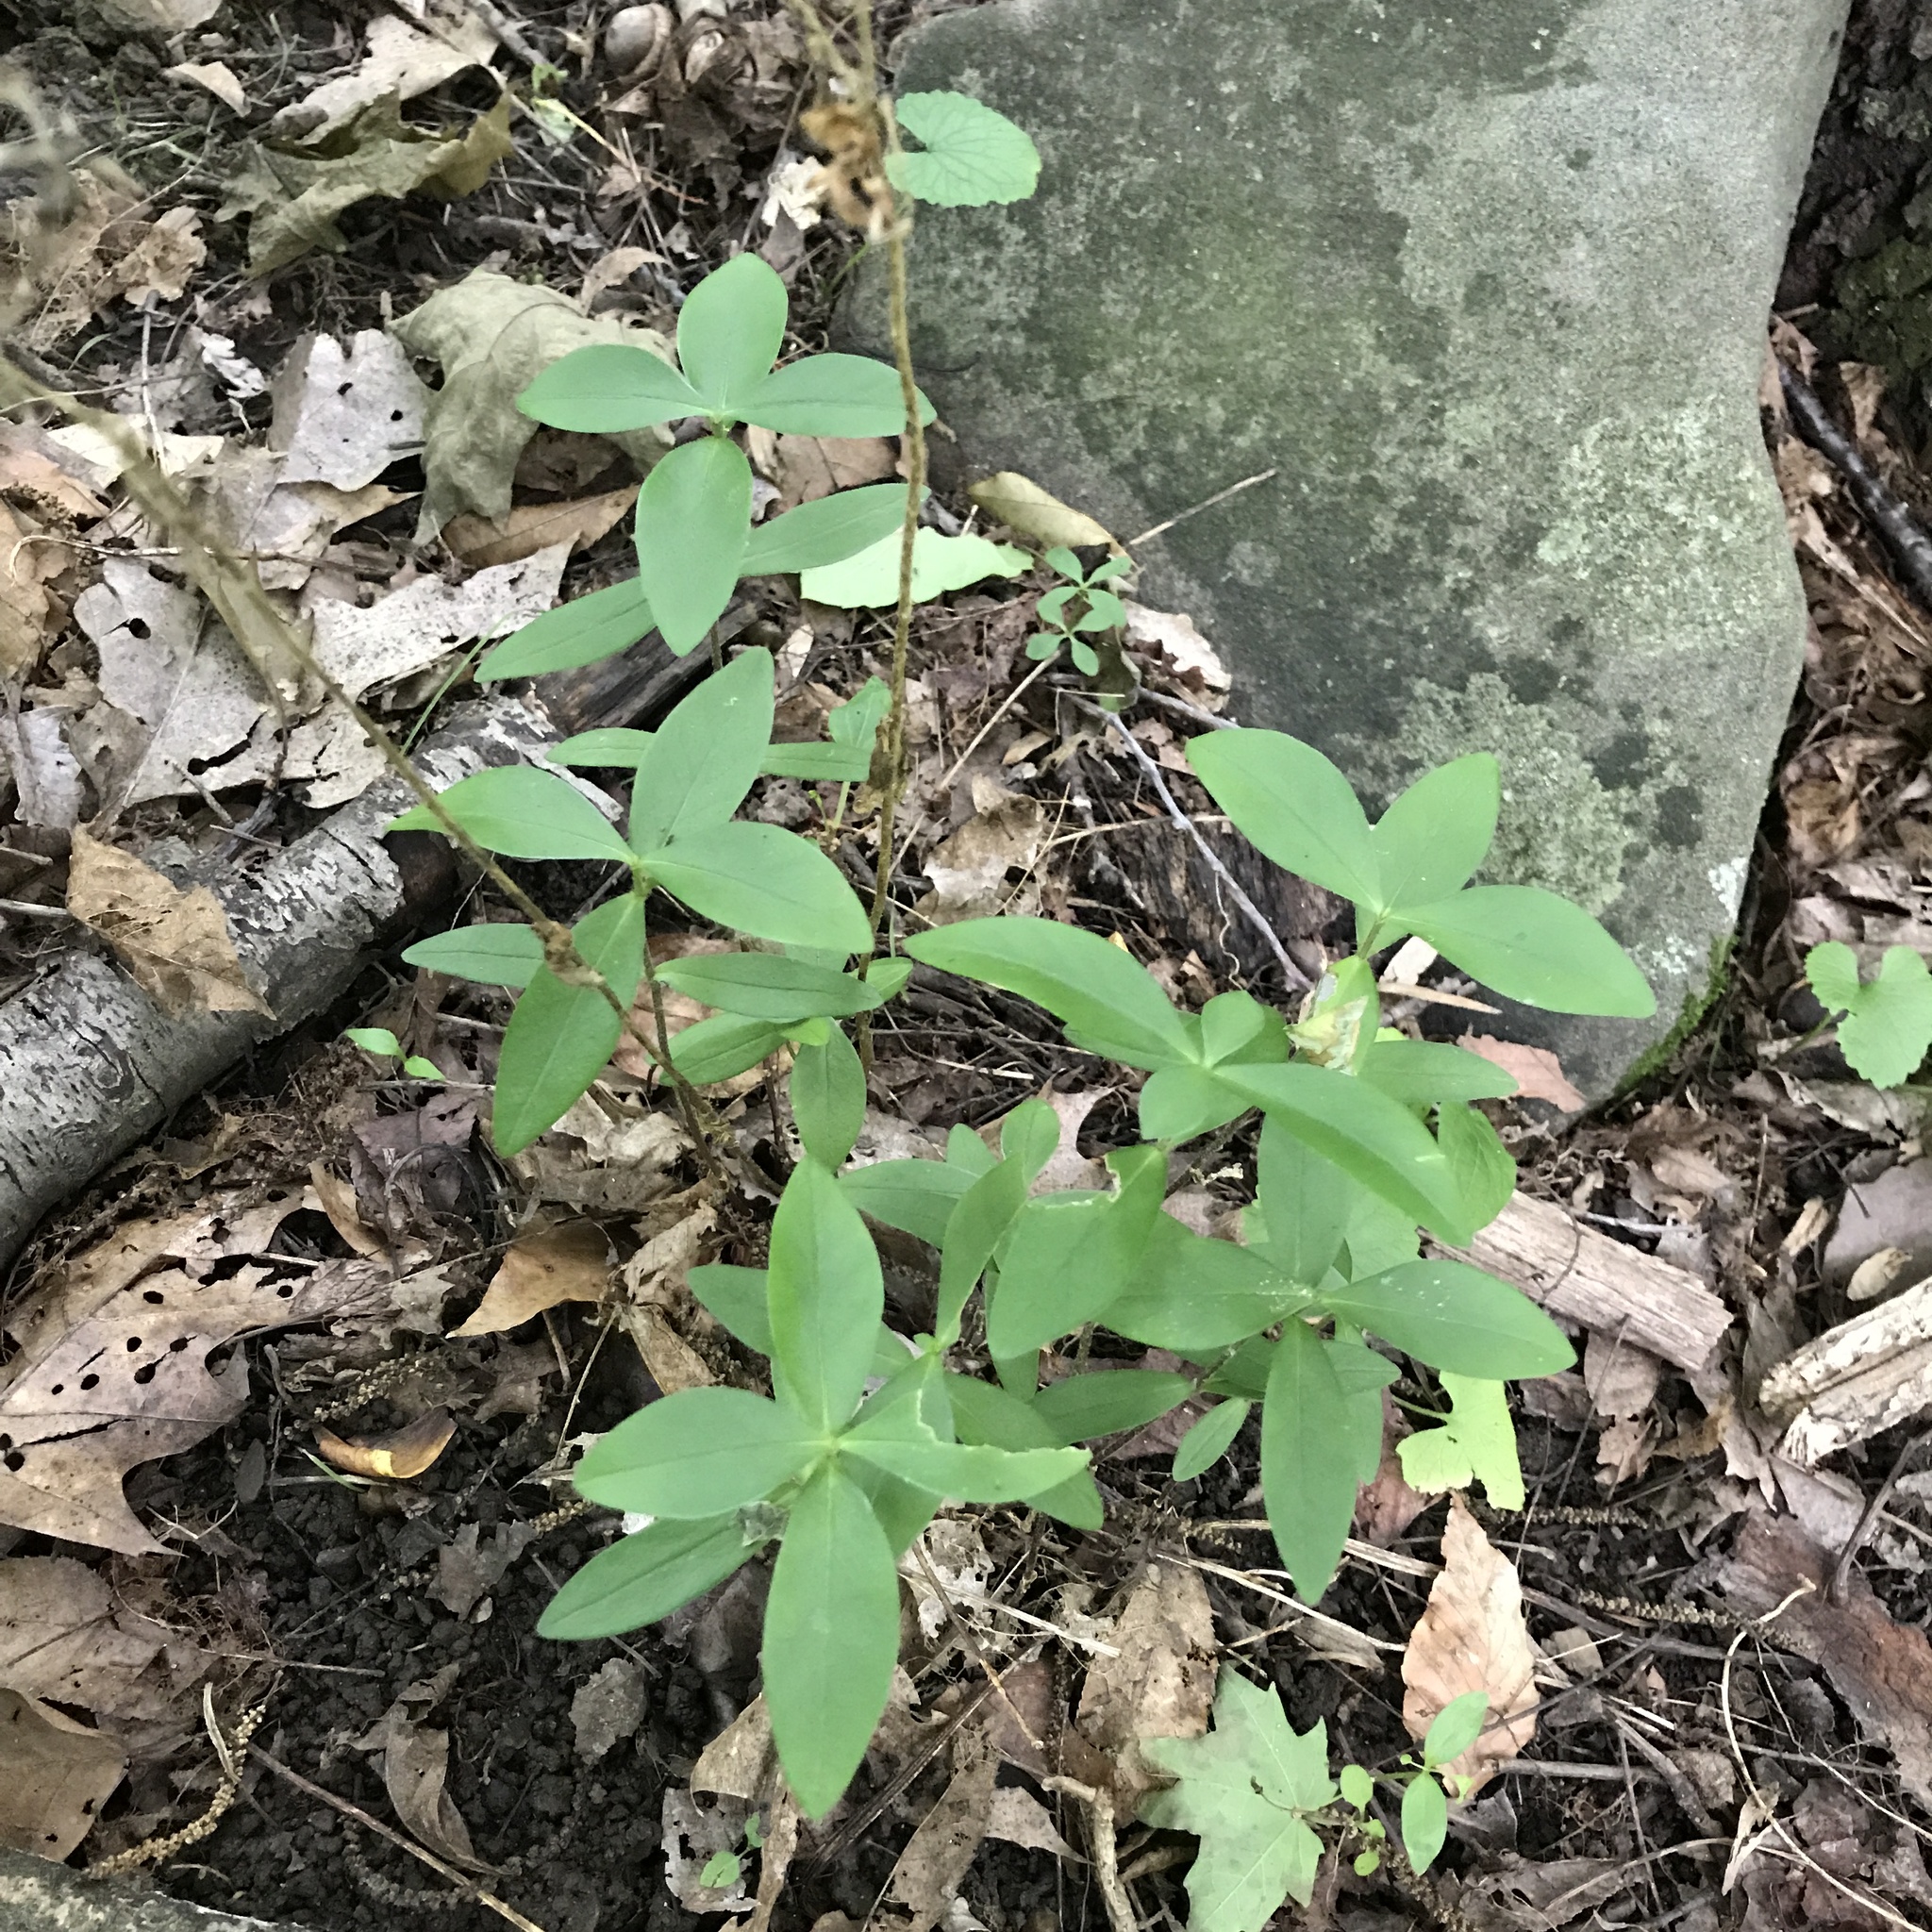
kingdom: Plantae
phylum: Tracheophyta
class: Magnoliopsida
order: Ericales
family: Polemoniaceae
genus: Phlox
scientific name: Phlox divaricata
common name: Blue phlox
